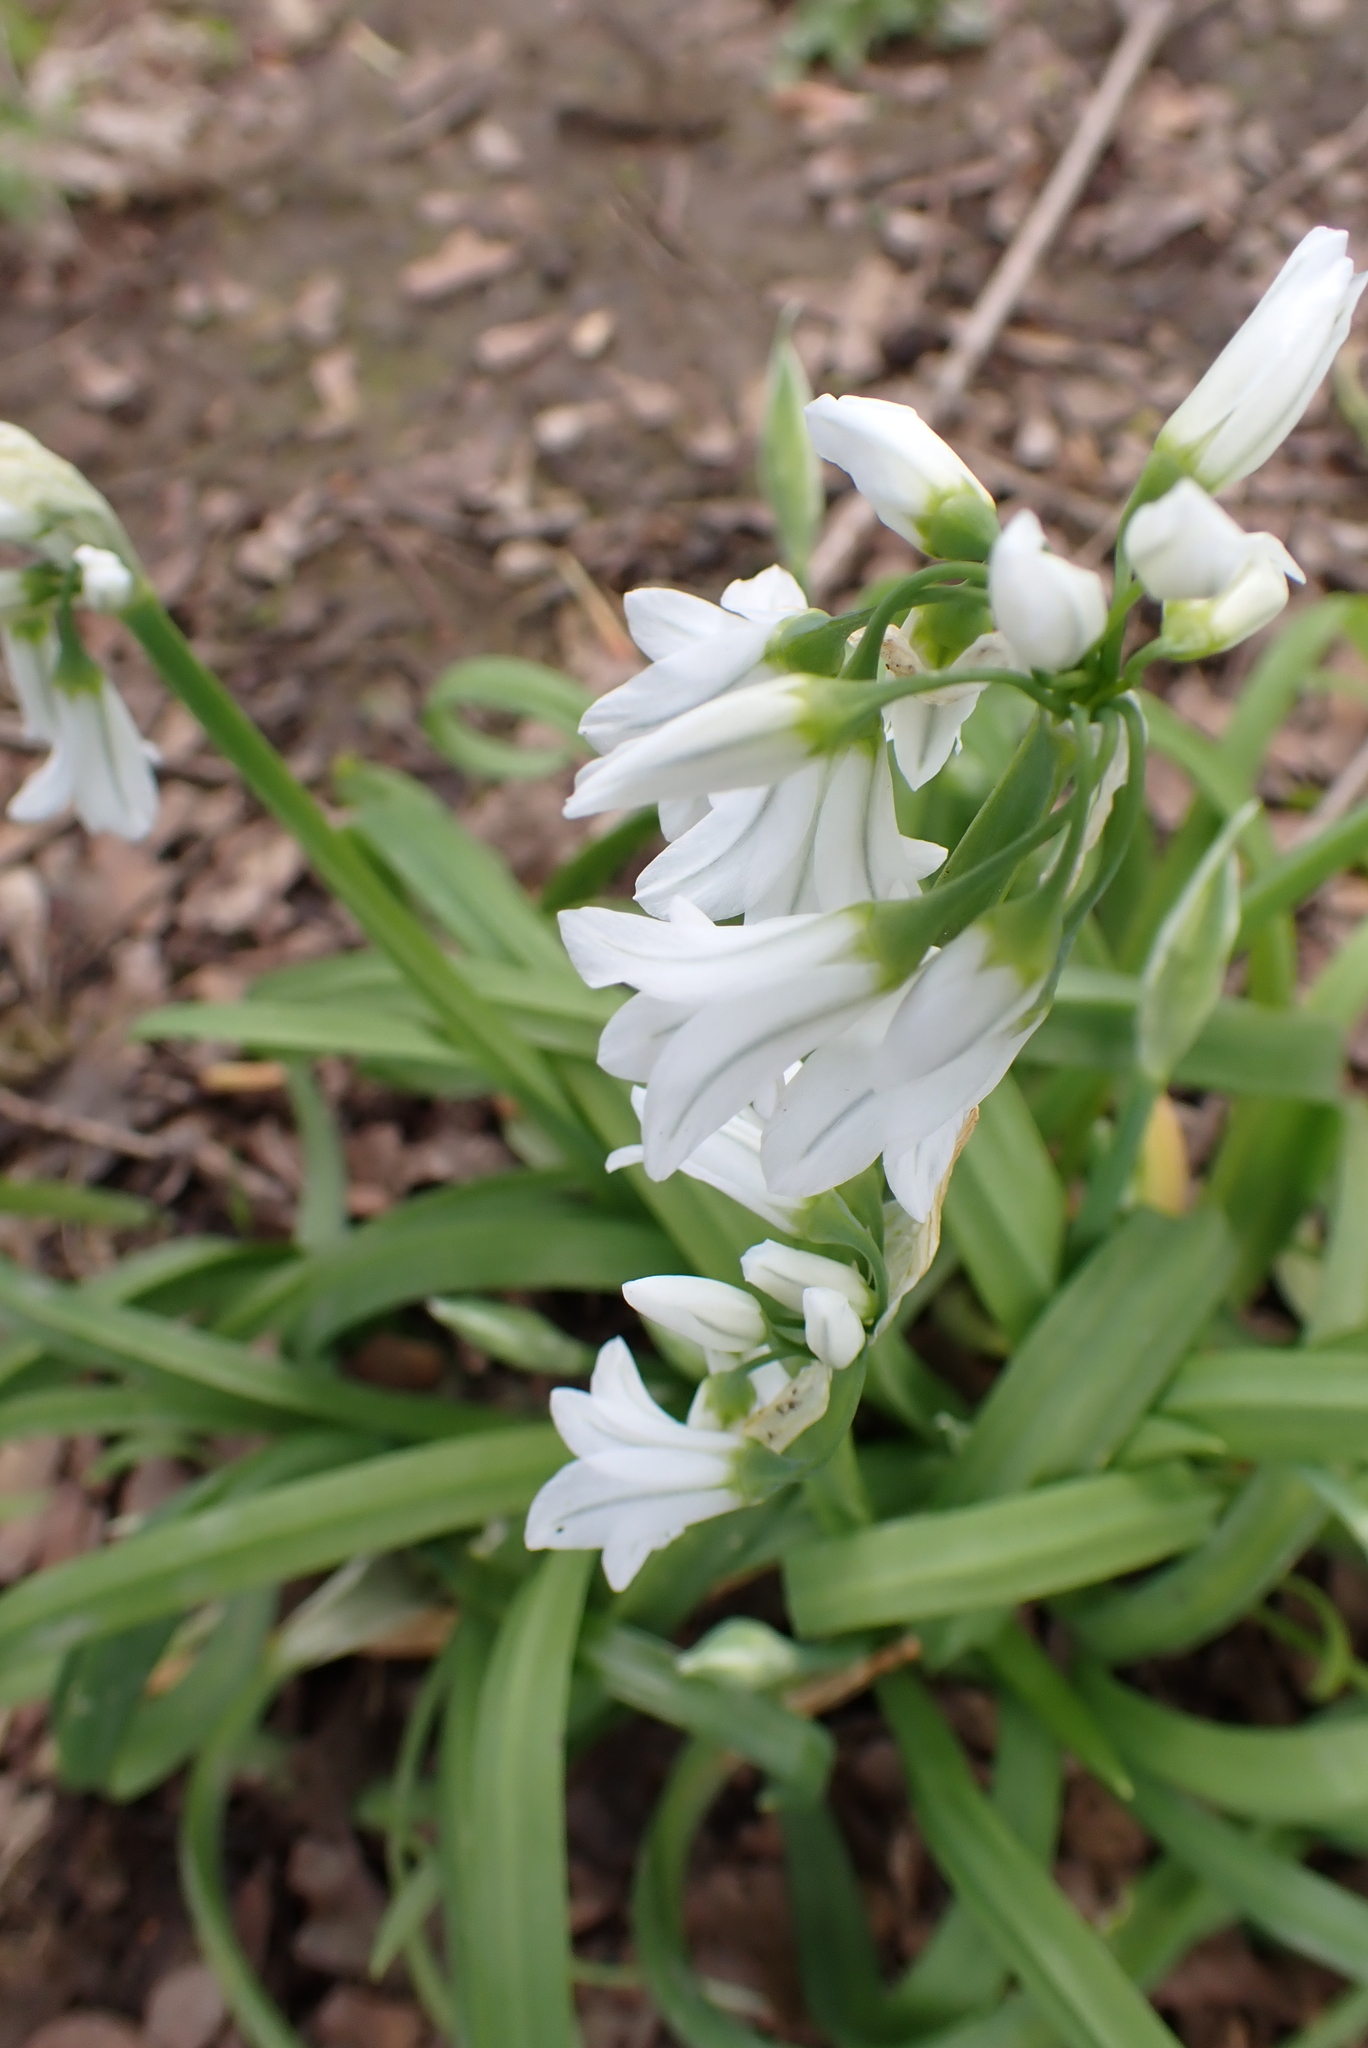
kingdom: Plantae
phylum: Tracheophyta
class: Liliopsida
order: Asparagales
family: Amaryllidaceae
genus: Allium
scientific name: Allium triquetrum
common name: Three-cornered garlic
